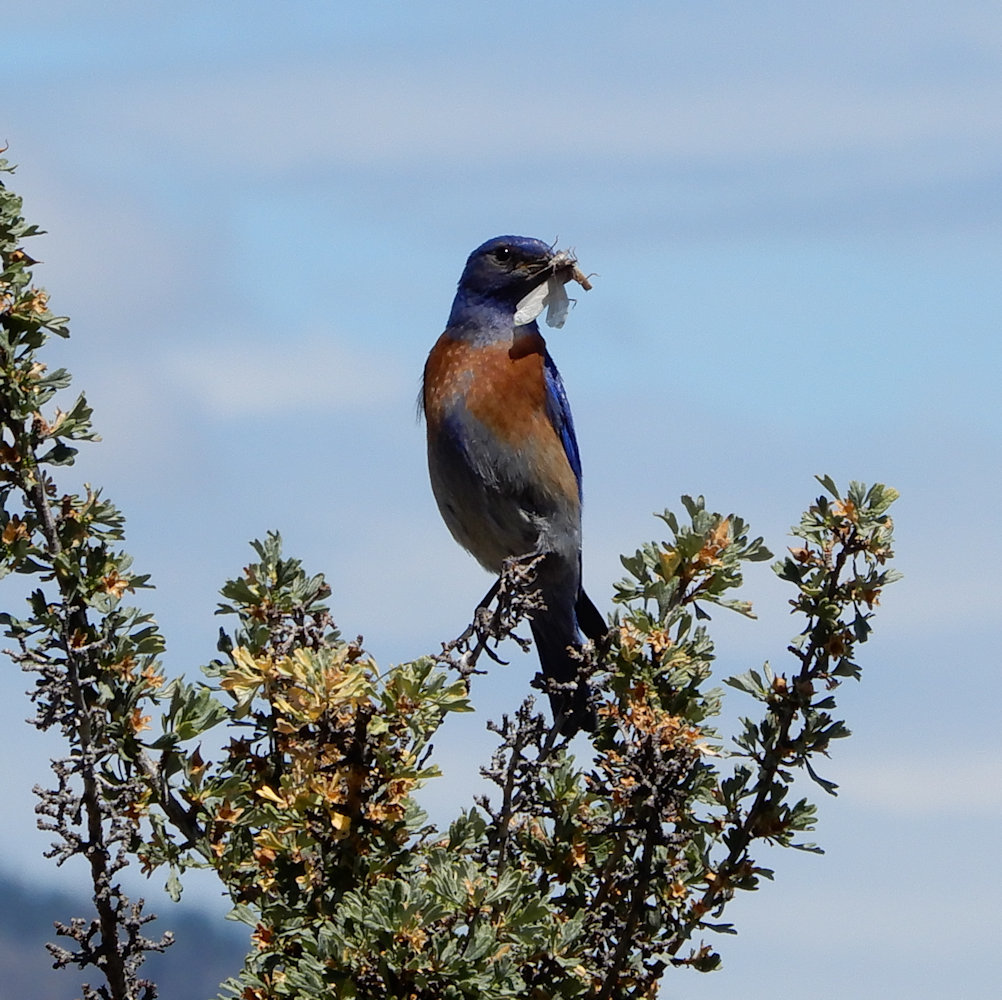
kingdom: Animalia
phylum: Chordata
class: Aves
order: Passeriformes
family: Turdidae
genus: Sialia
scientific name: Sialia mexicana
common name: Western bluebird
